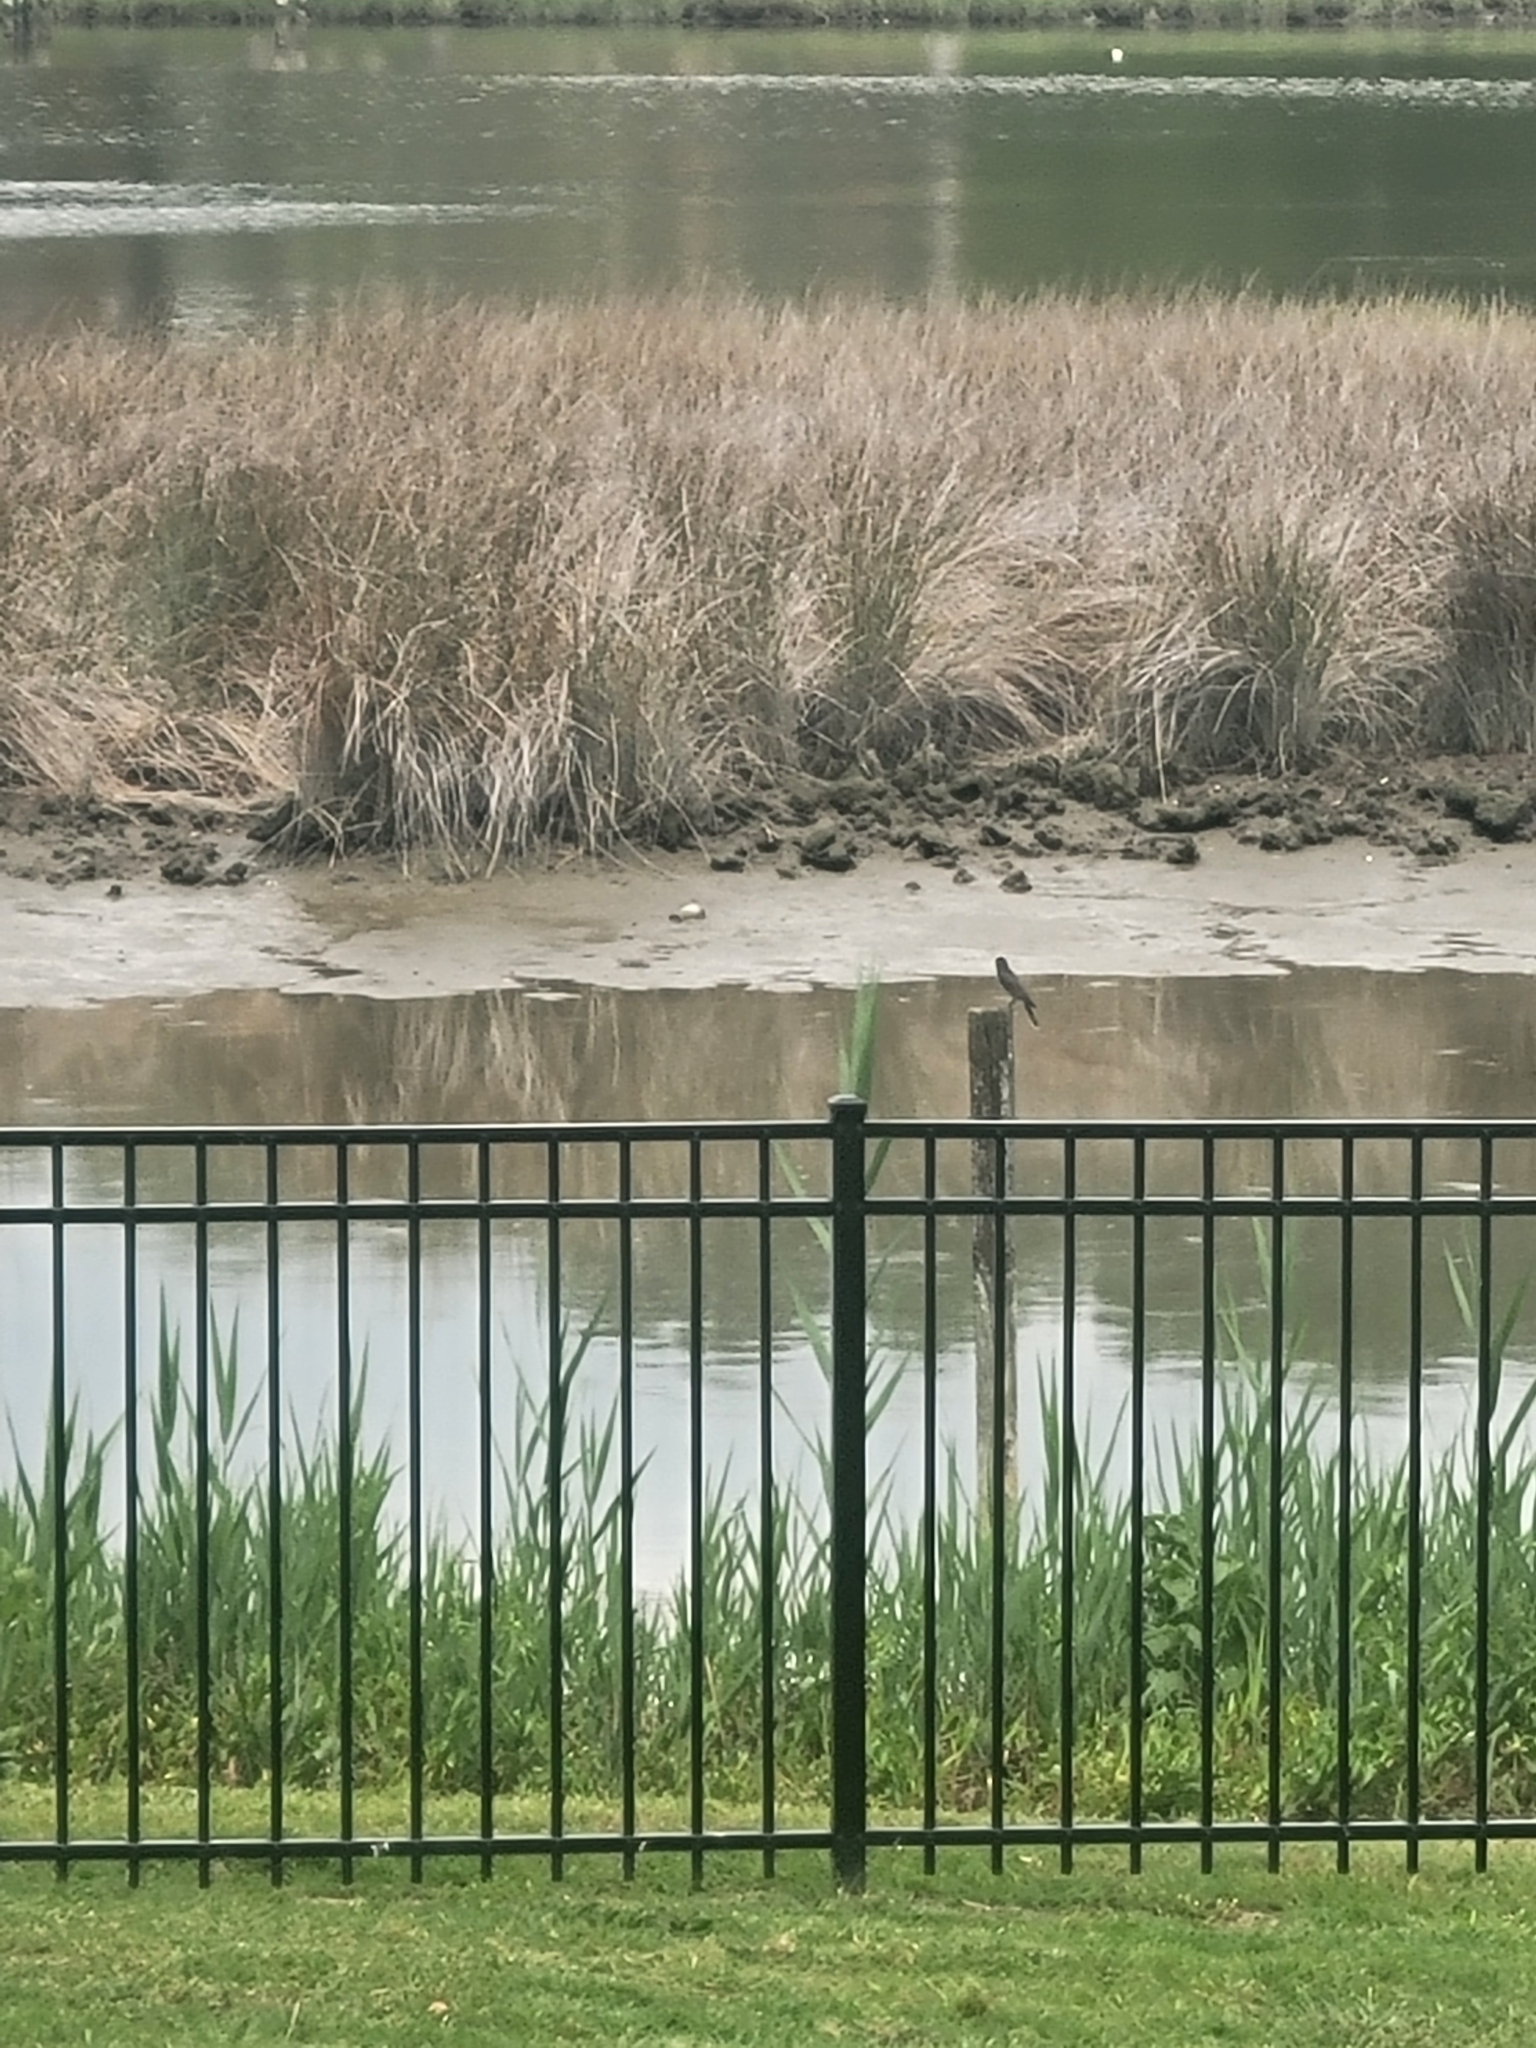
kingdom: Animalia
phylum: Chordata
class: Aves
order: Passeriformes
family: Tyrannidae
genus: Tyrannus
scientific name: Tyrannus tyrannus
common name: Eastern kingbird
